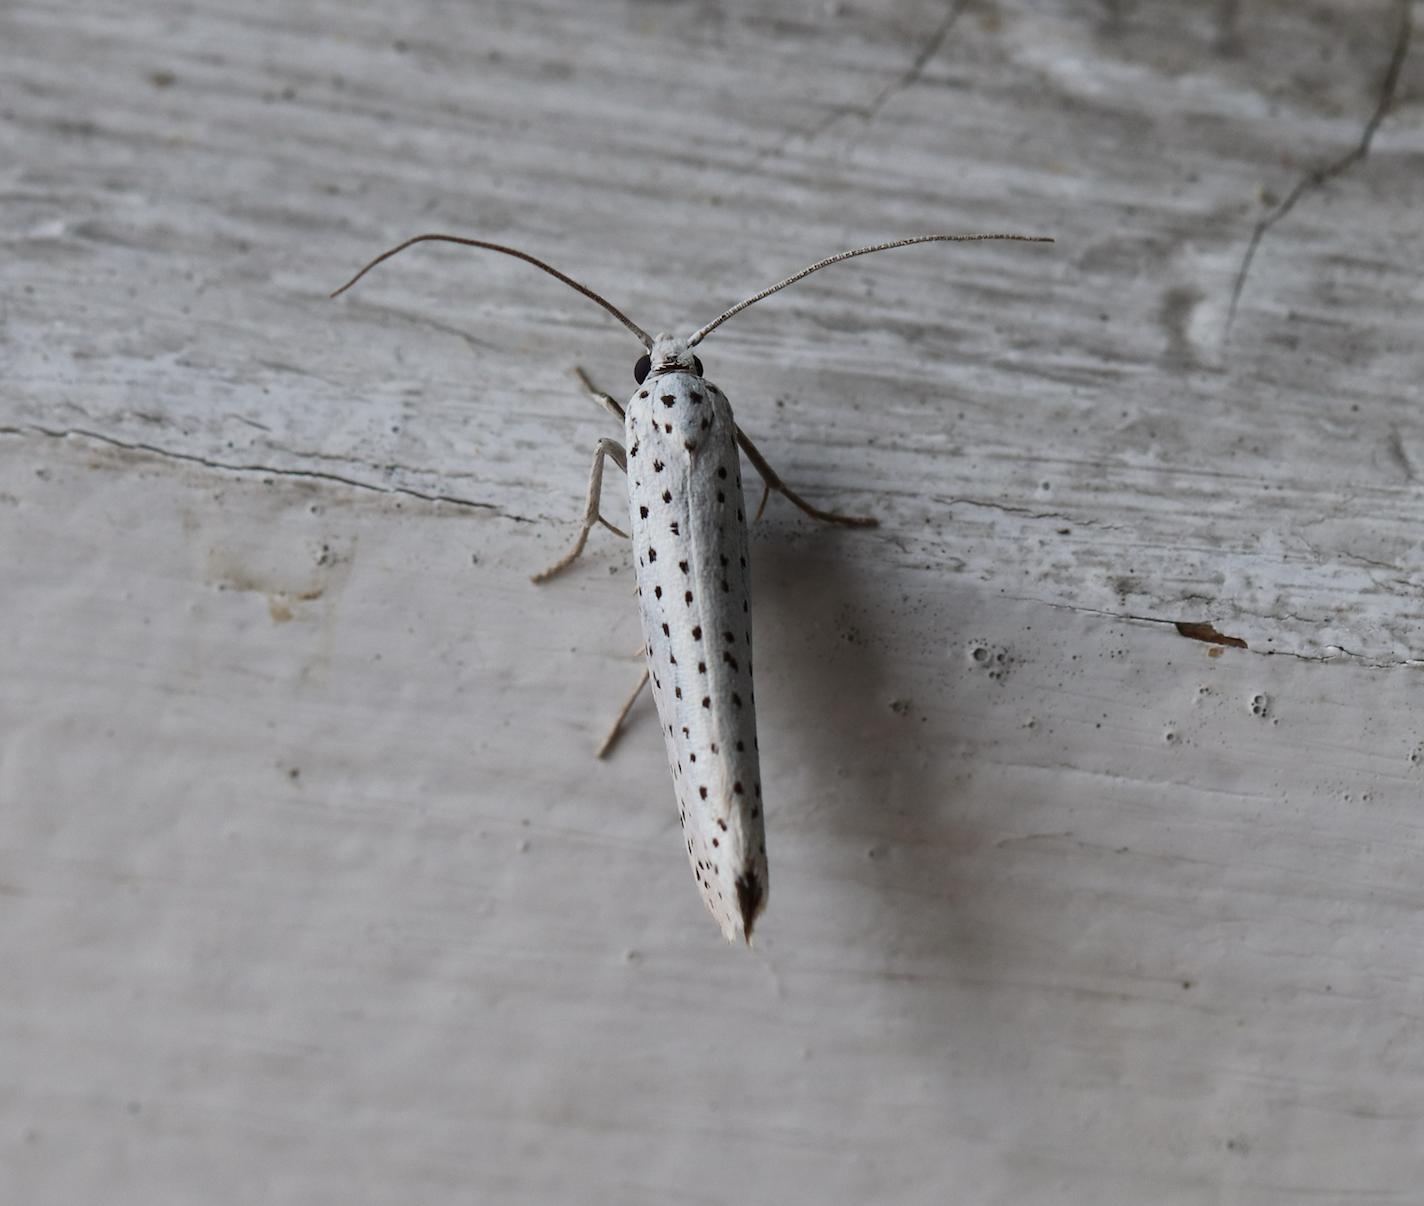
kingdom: Animalia
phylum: Arthropoda
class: Insecta
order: Lepidoptera
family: Yponomeutidae
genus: Yponomeuta
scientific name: Yponomeuta evonymella
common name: Bird-cherry ermine
